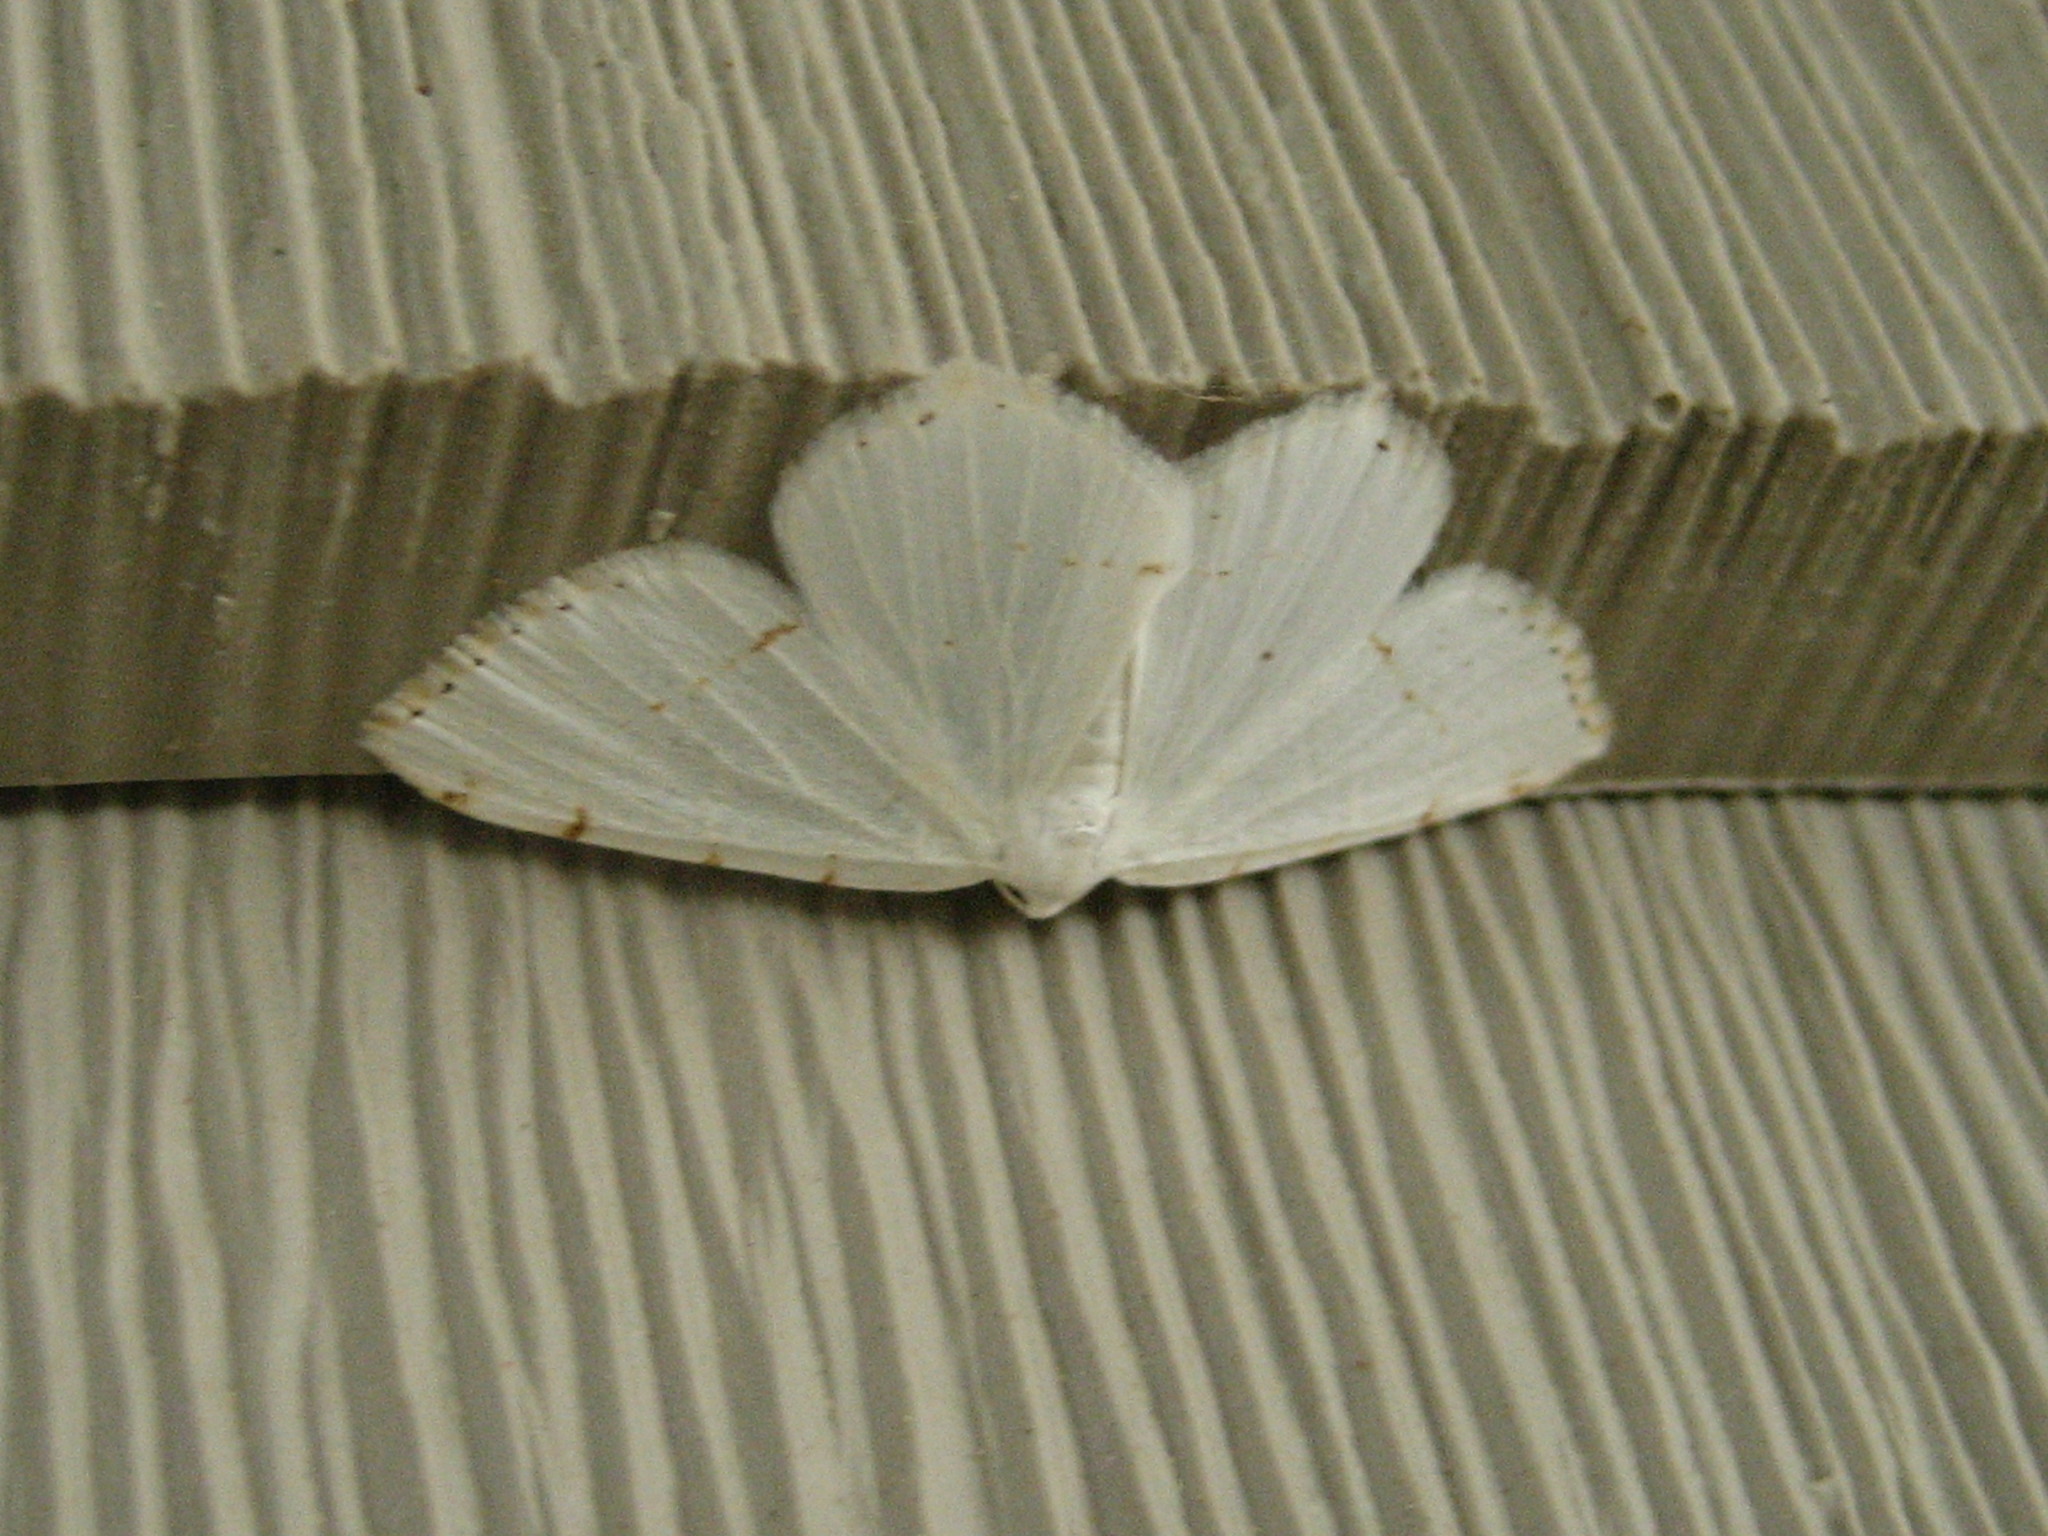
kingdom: Animalia
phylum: Arthropoda
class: Insecta
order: Lepidoptera
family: Geometridae
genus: Macaria
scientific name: Macaria pustularia
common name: Lesser maple spanworm moth
